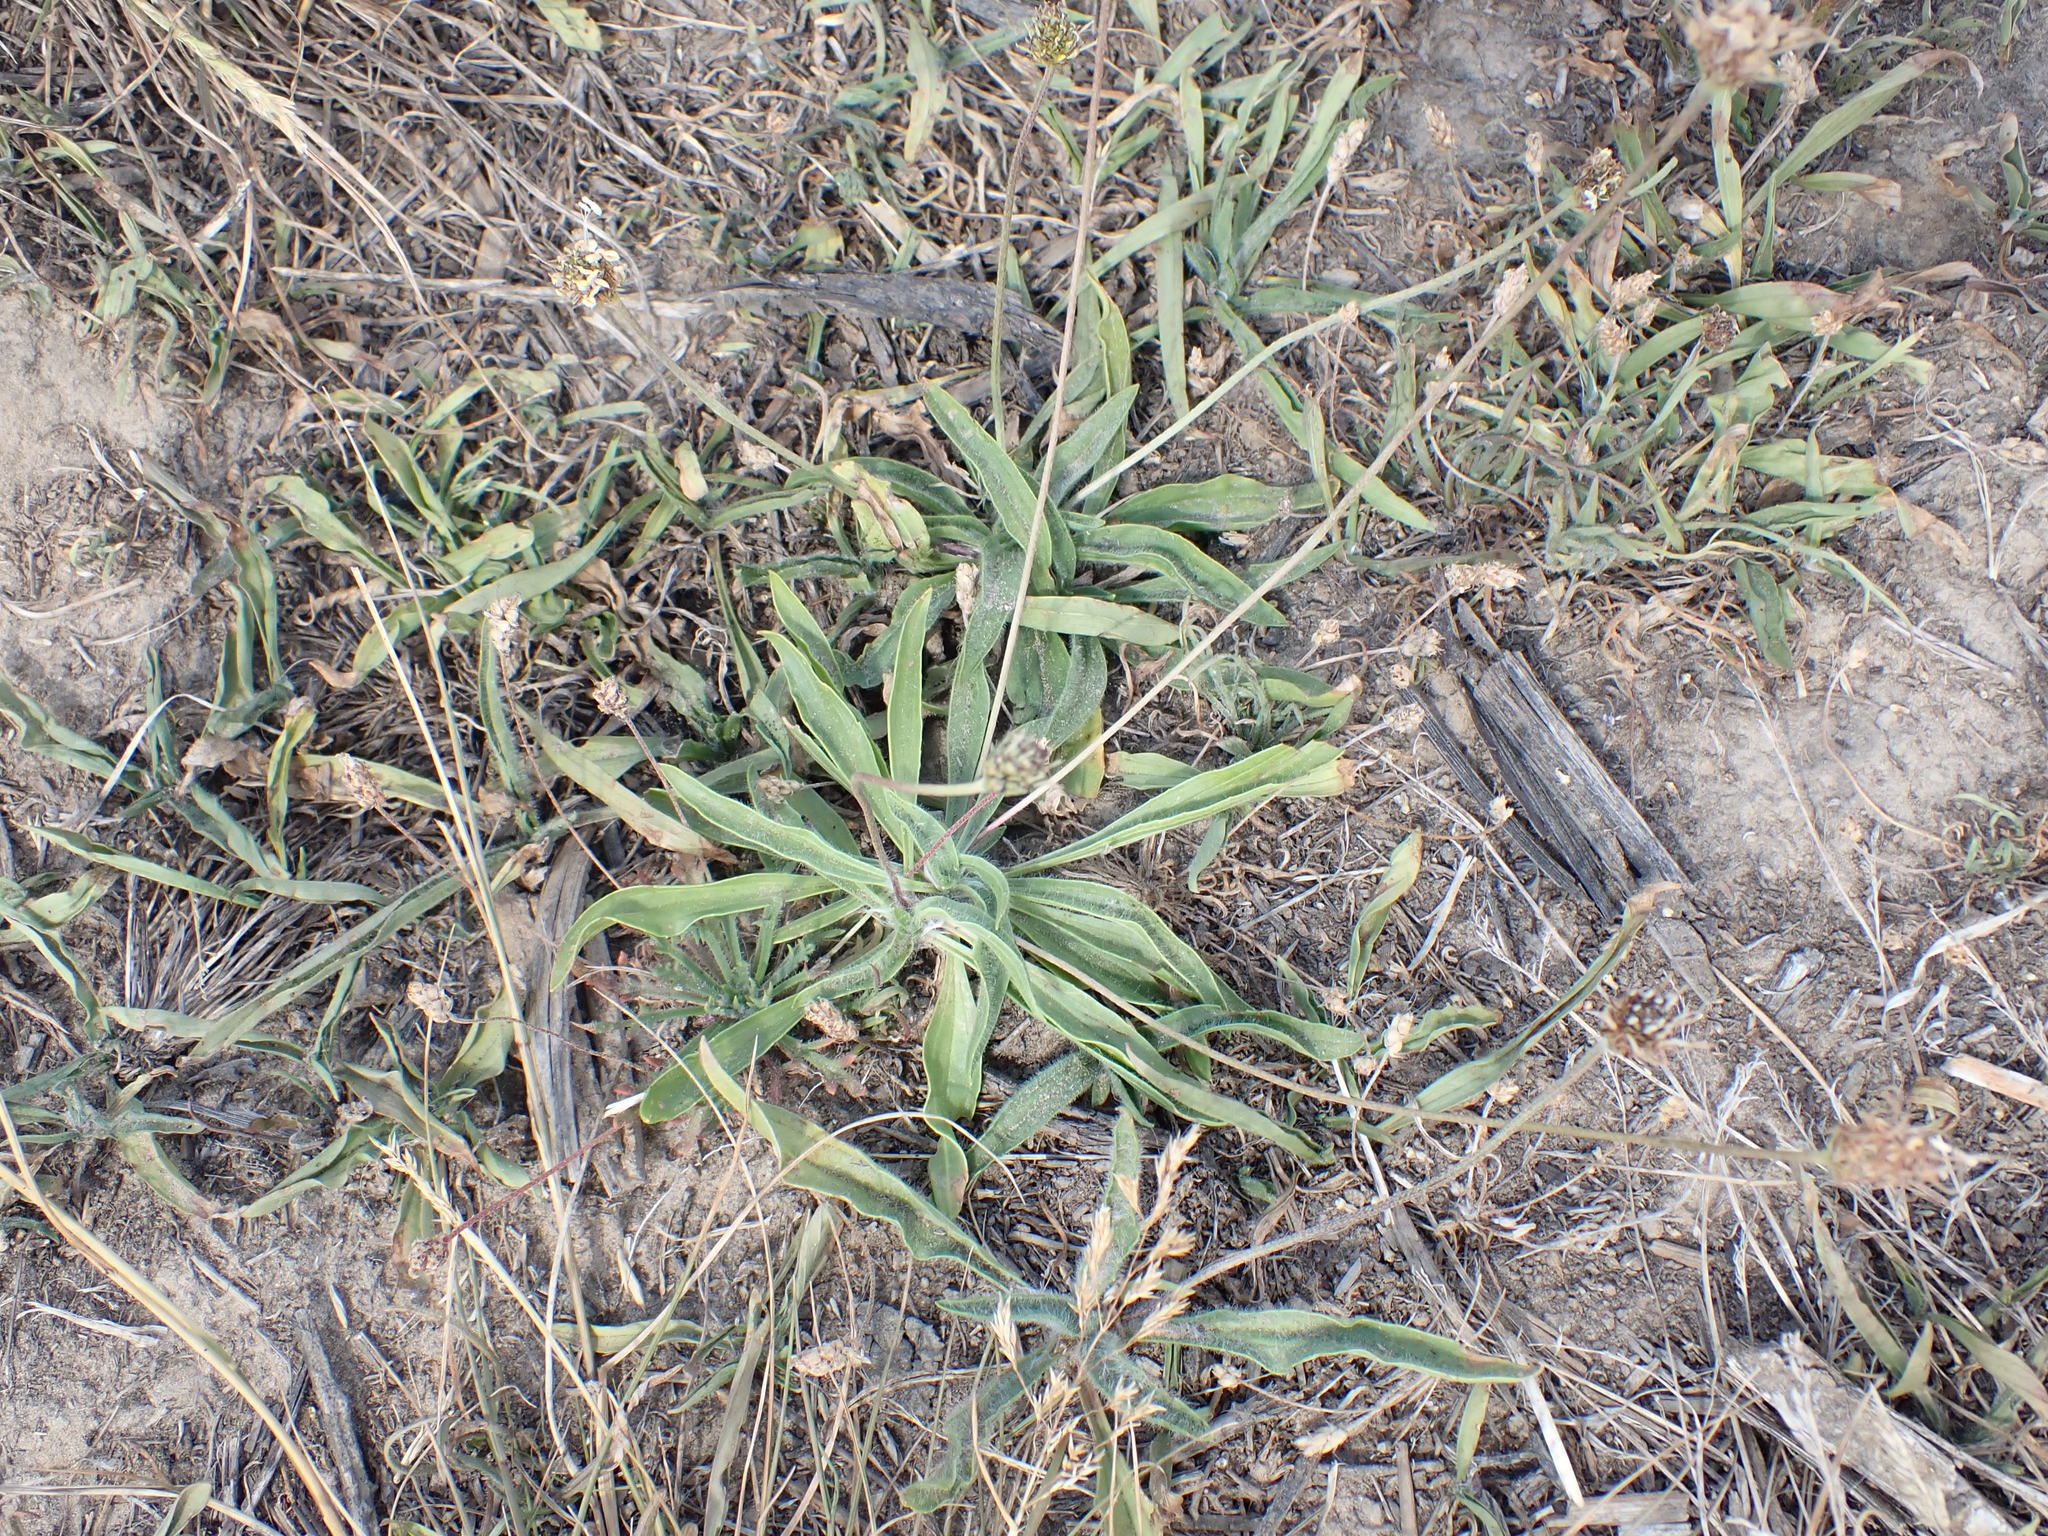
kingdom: Plantae
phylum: Tracheophyta
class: Magnoliopsida
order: Lamiales
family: Plantaginaceae
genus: Plantago
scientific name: Plantago lanceolata
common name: Ribwort plantain
